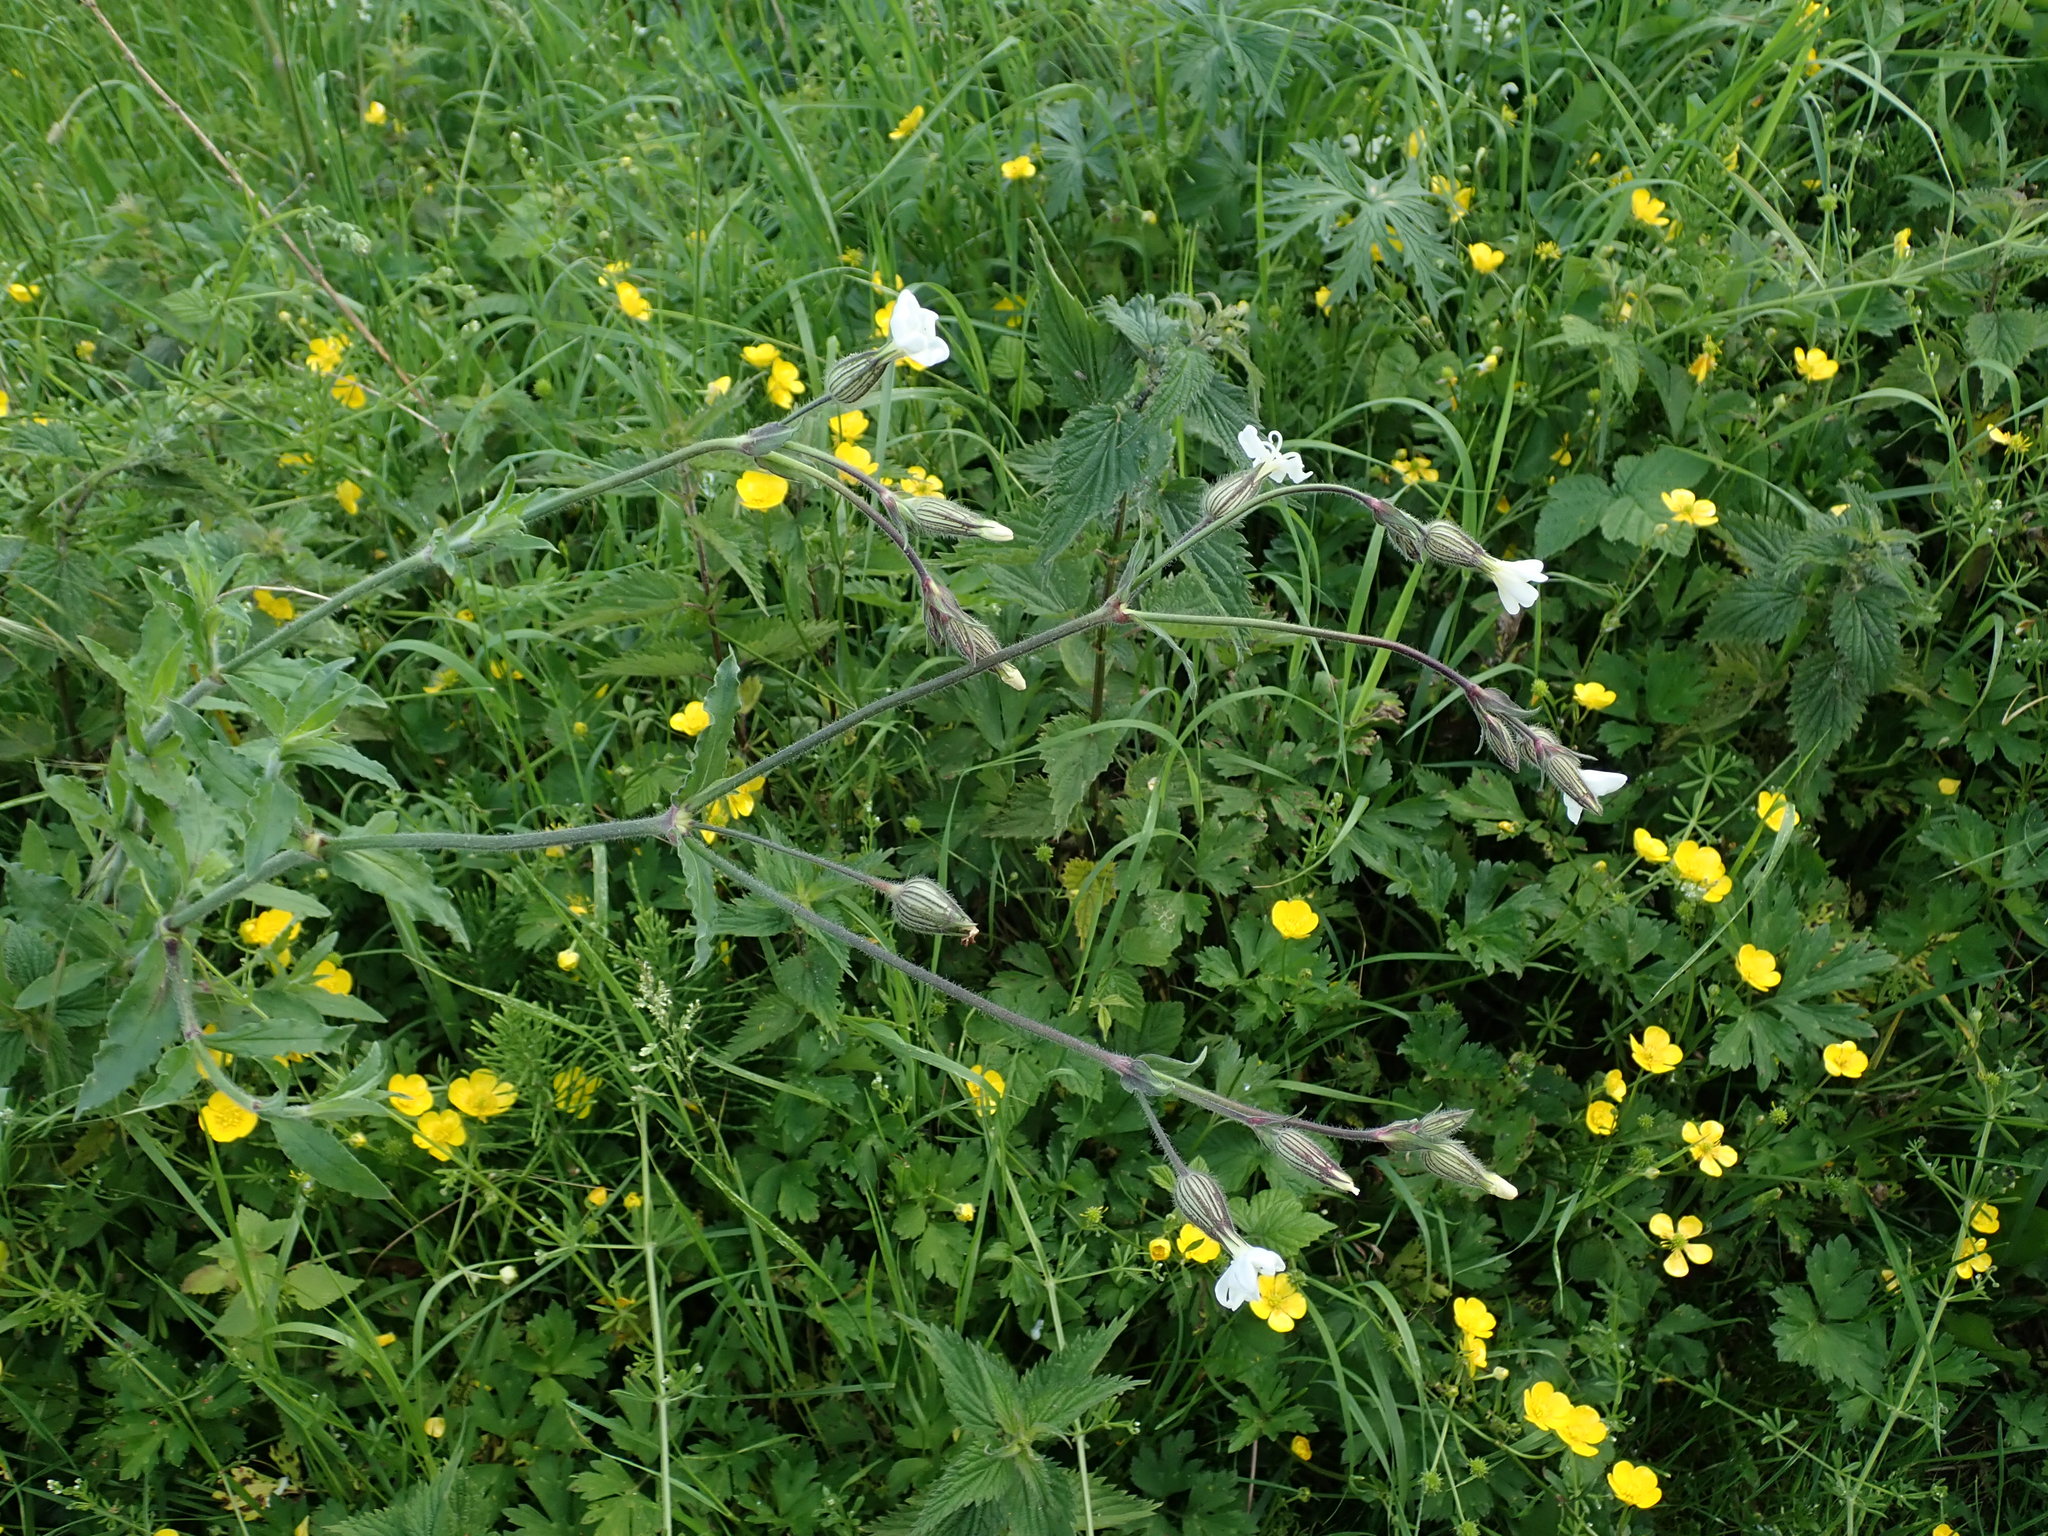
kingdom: Plantae
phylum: Tracheophyta
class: Magnoliopsida
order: Caryophyllales
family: Caryophyllaceae
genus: Silene
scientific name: Silene latifolia
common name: White campion
